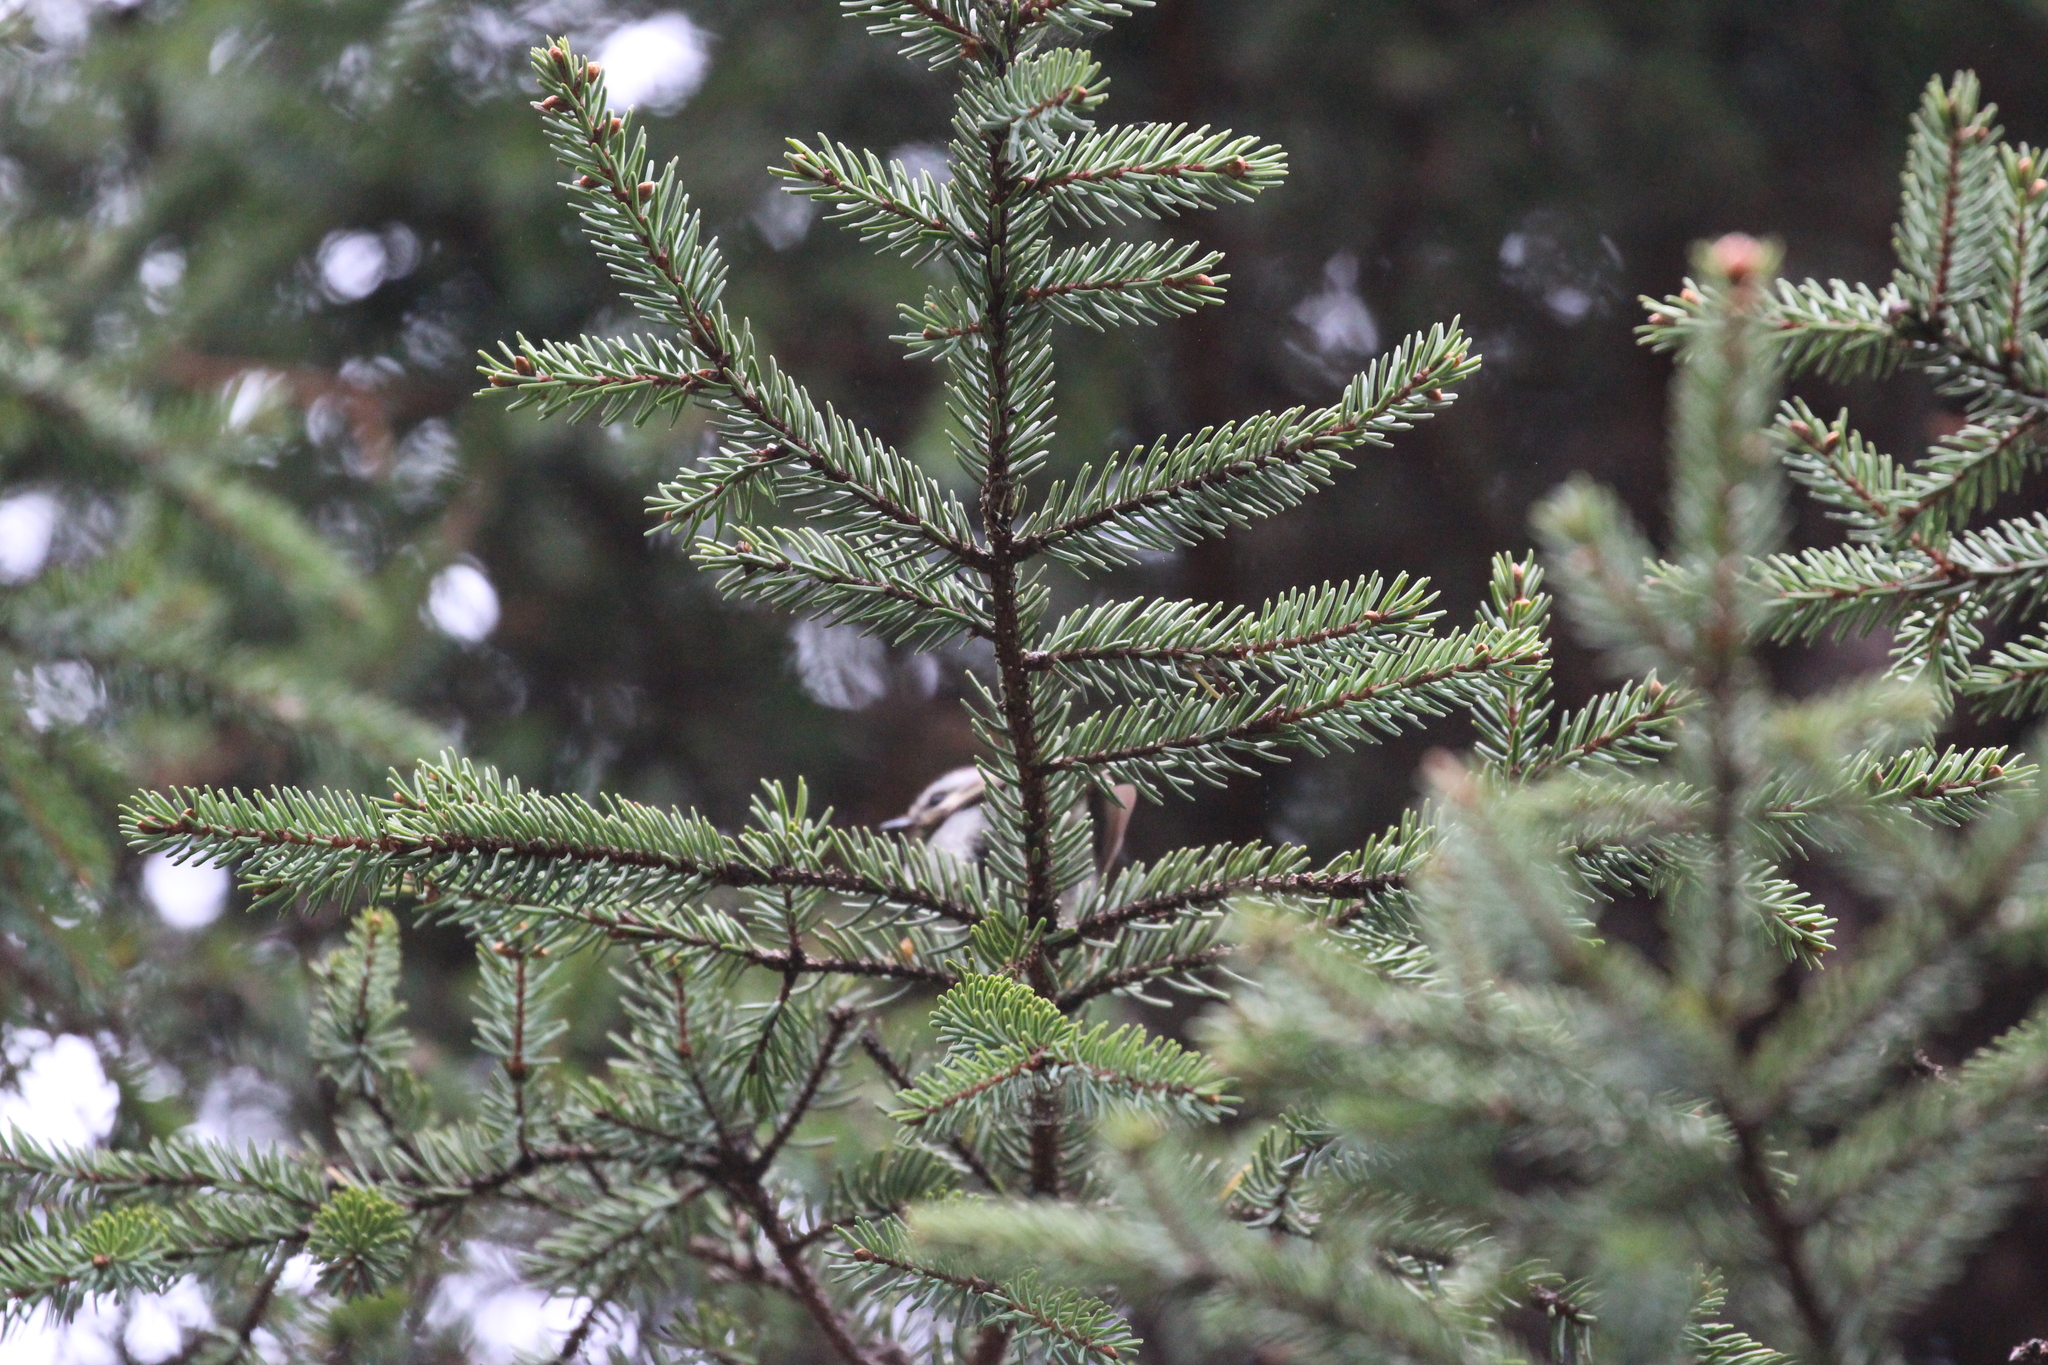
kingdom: Plantae
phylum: Tracheophyta
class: Pinopsida
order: Pinales
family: Pinaceae
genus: Picea
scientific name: Picea mariana
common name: Black spruce
